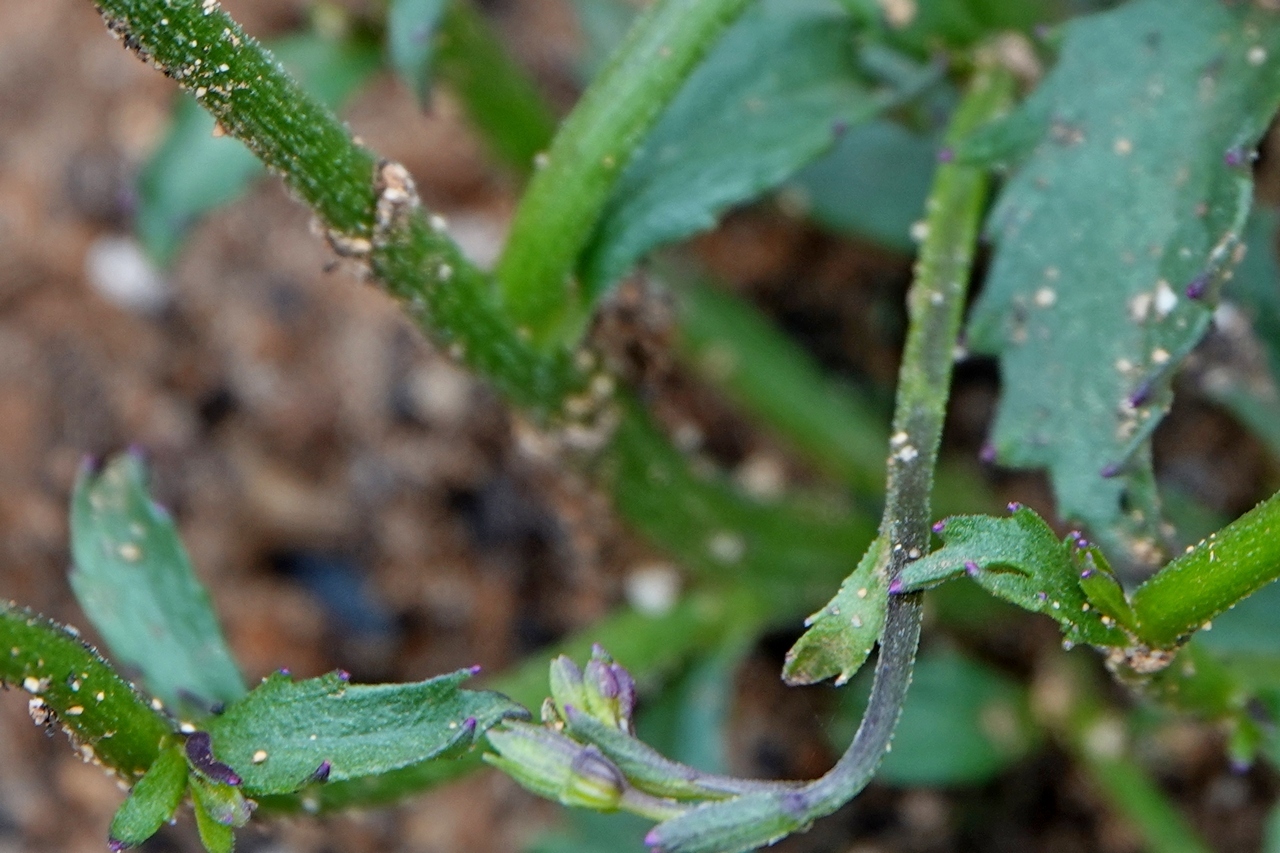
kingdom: Plantae
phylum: Tracheophyta
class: Magnoliopsida
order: Asterales
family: Campanulaceae
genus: Lobelia
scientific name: Lobelia dentata
